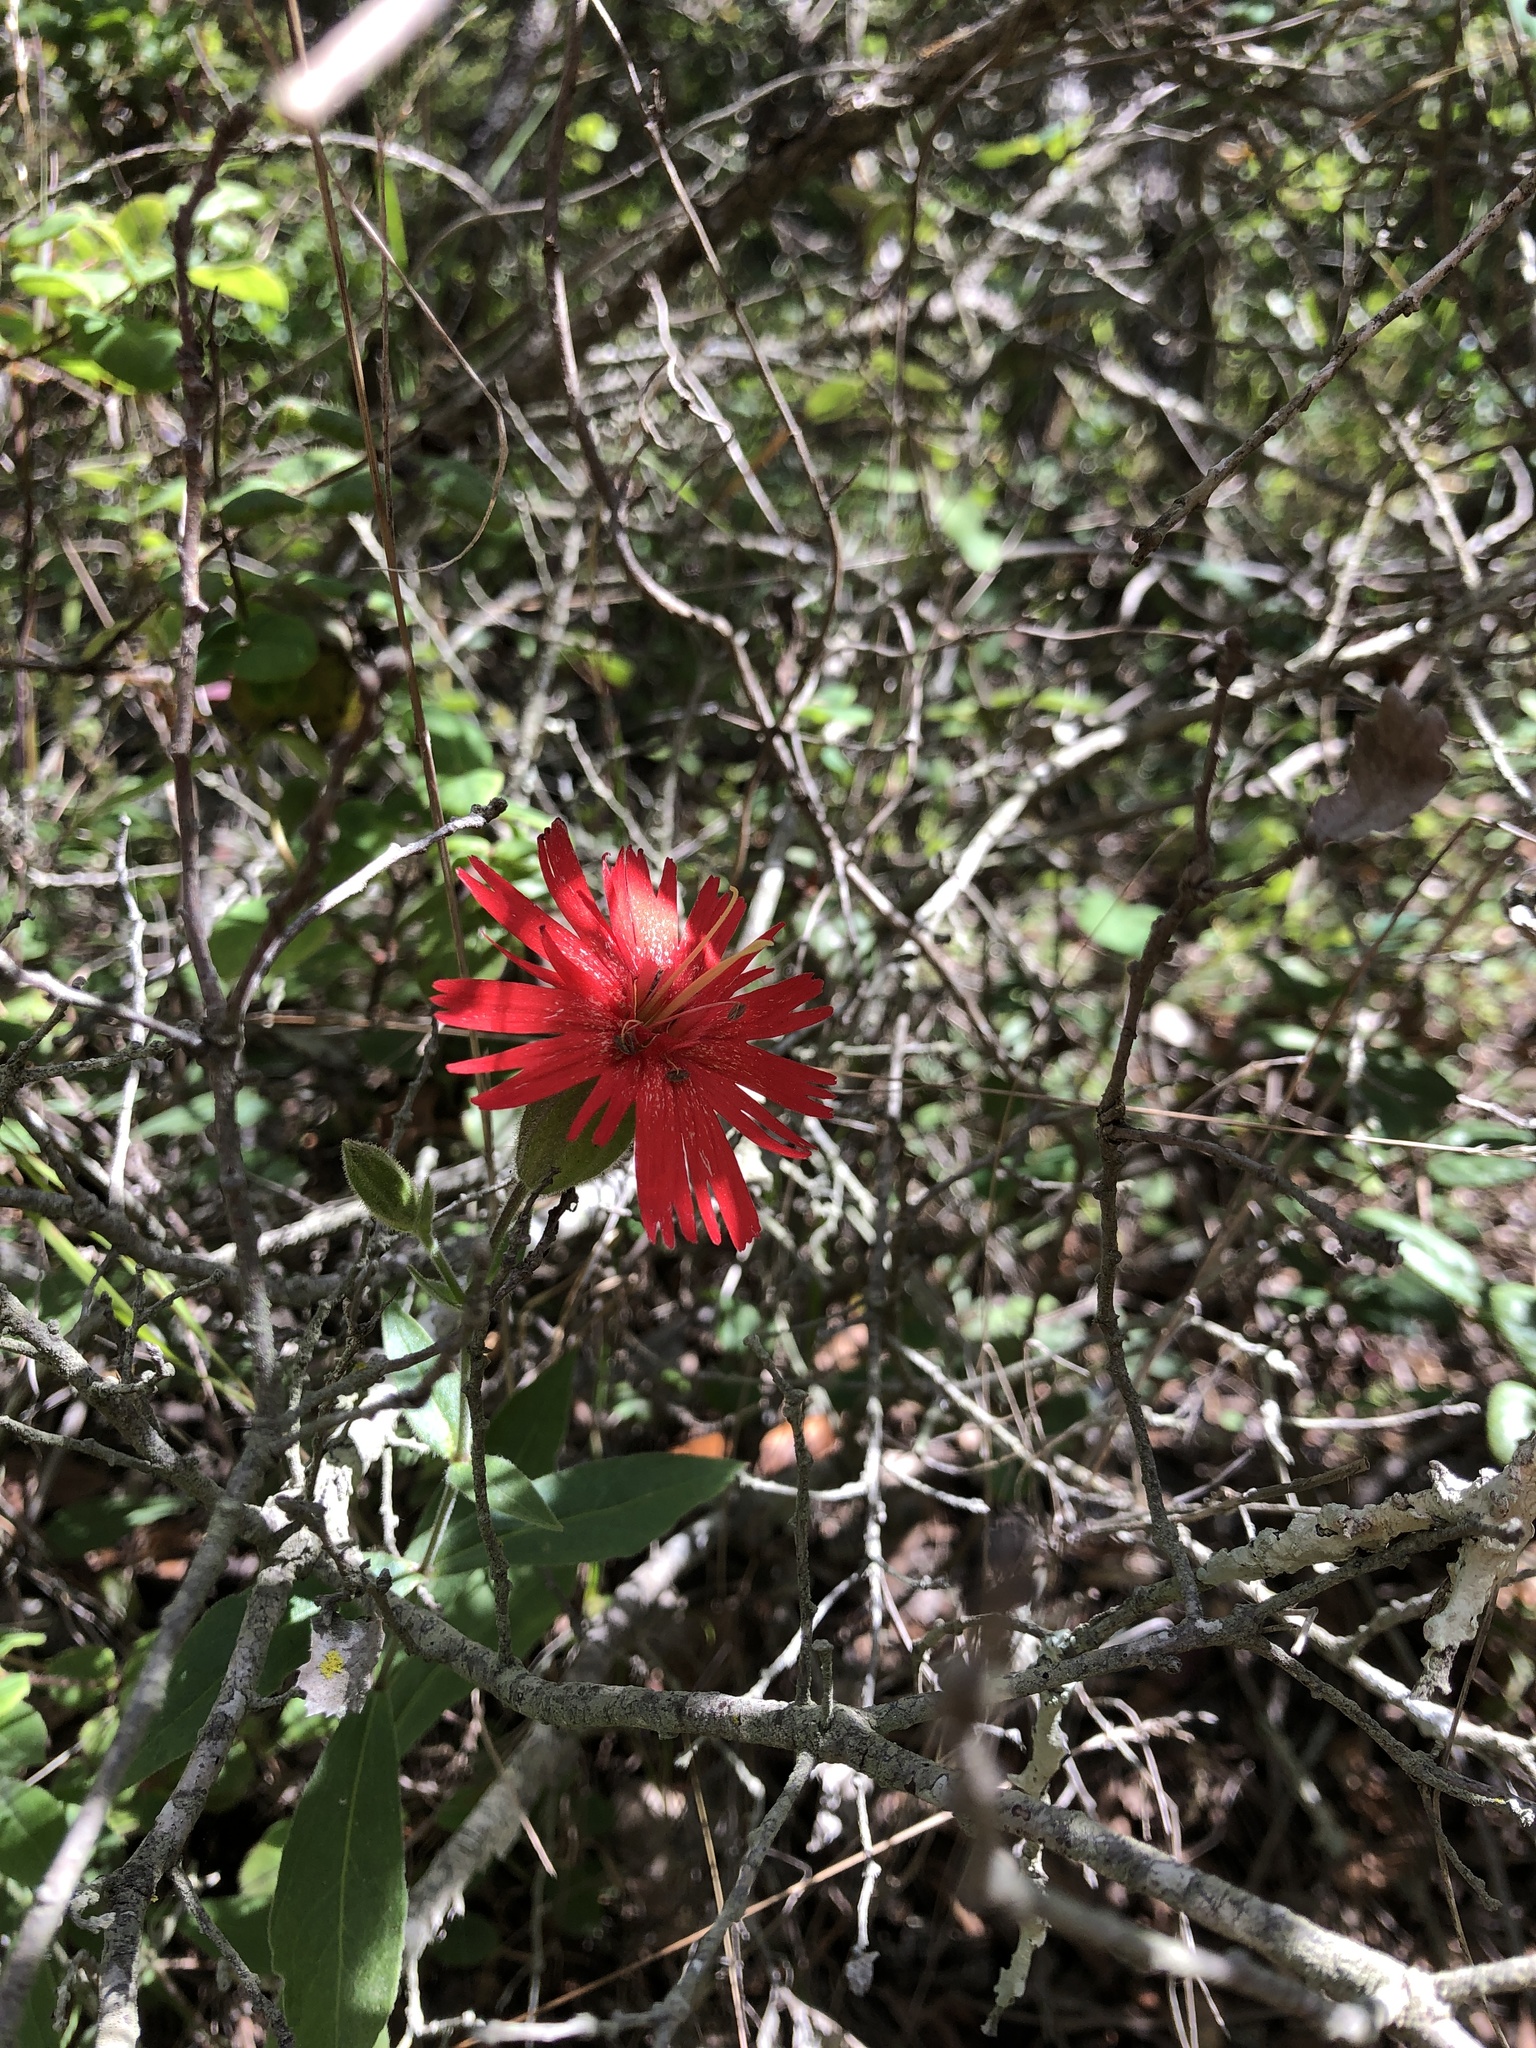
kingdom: Plantae
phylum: Tracheophyta
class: Magnoliopsida
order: Caryophyllales
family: Caryophyllaceae
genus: Silene
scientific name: Silene laciniata
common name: Indian-pink
